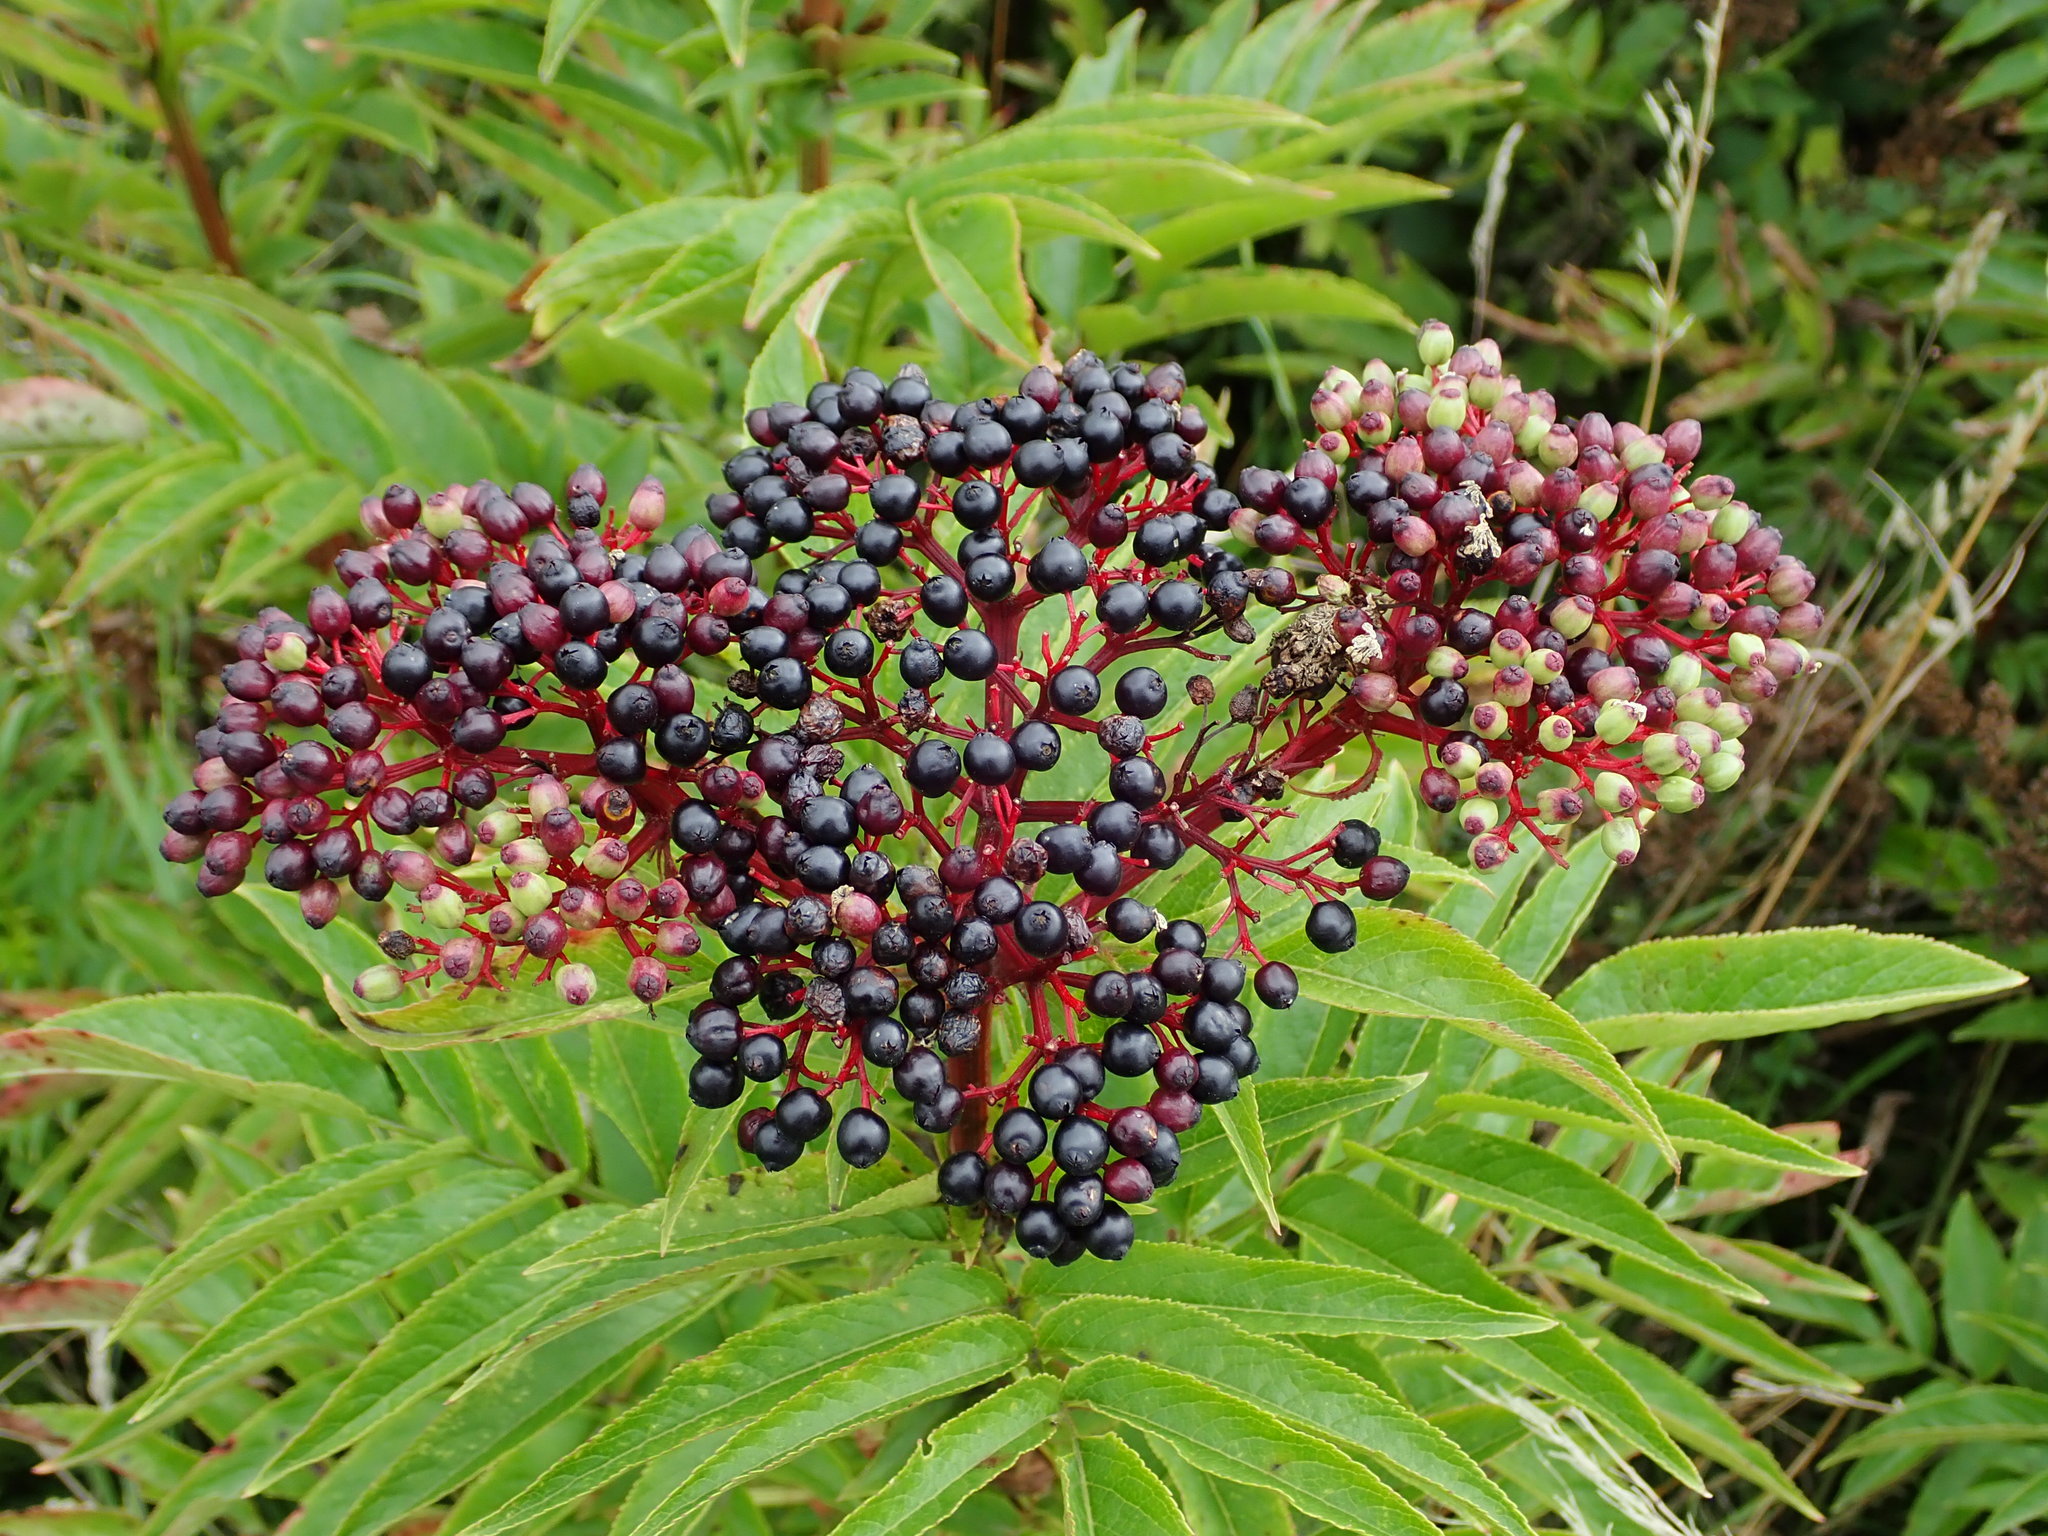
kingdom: Plantae
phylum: Tracheophyta
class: Magnoliopsida
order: Dipsacales
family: Viburnaceae
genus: Sambucus
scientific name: Sambucus ebulus
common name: Dwarf elder
